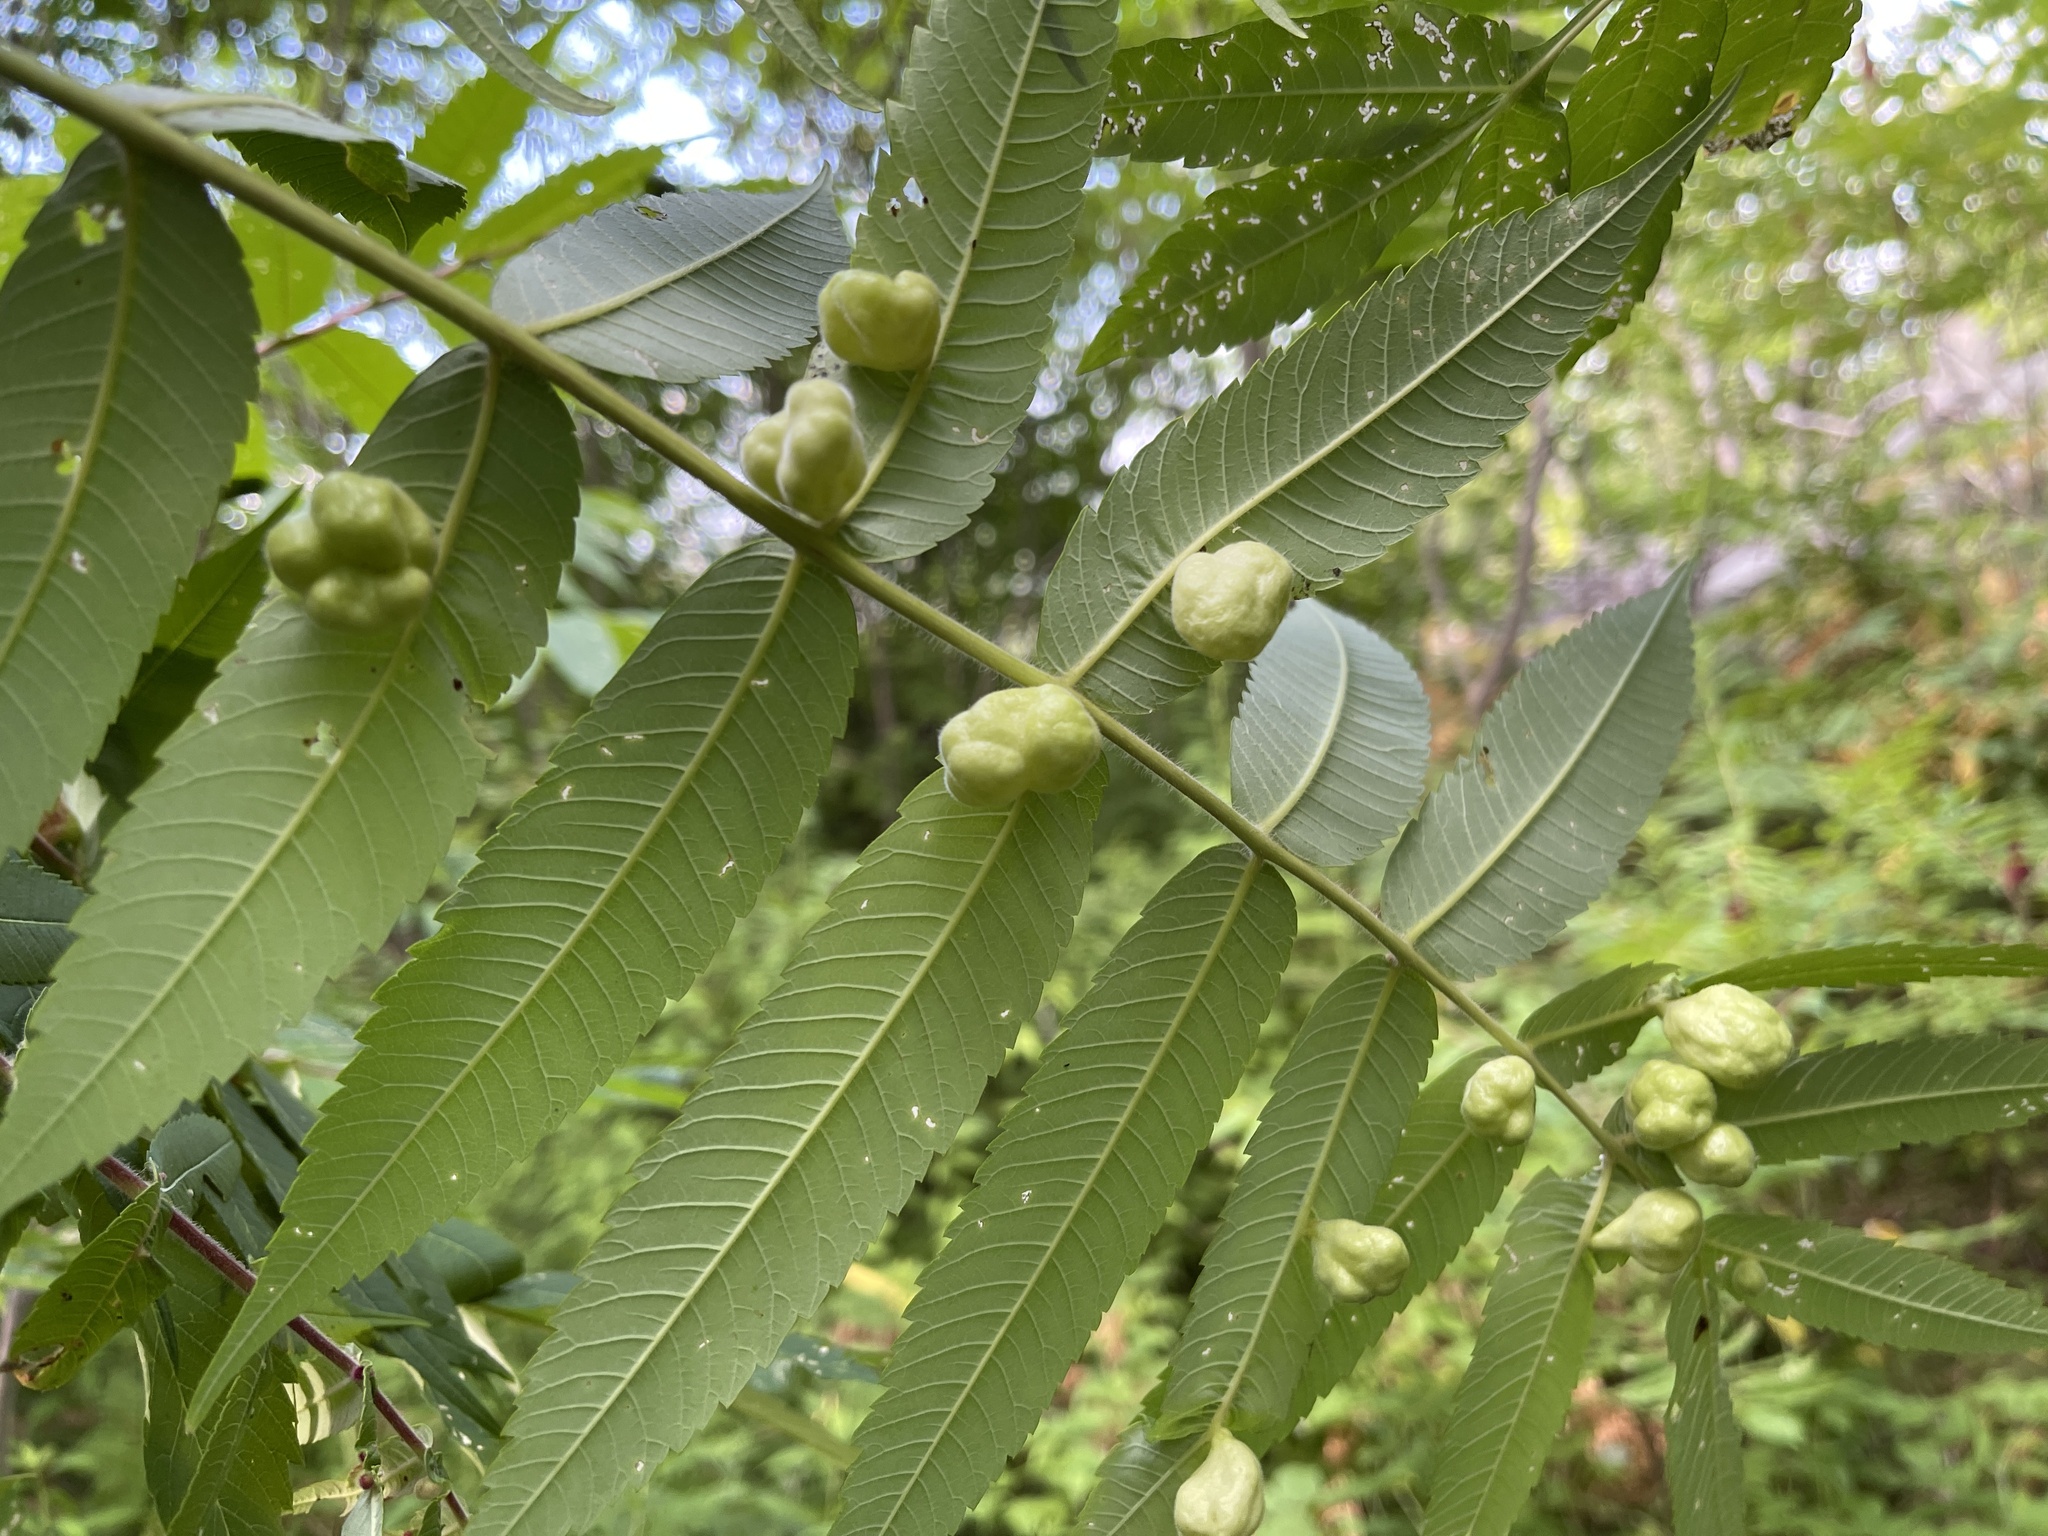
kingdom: Animalia
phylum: Arthropoda
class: Insecta
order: Hemiptera
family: Aphididae
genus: Melaphis
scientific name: Melaphis rhois
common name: Sumac gall aphid
